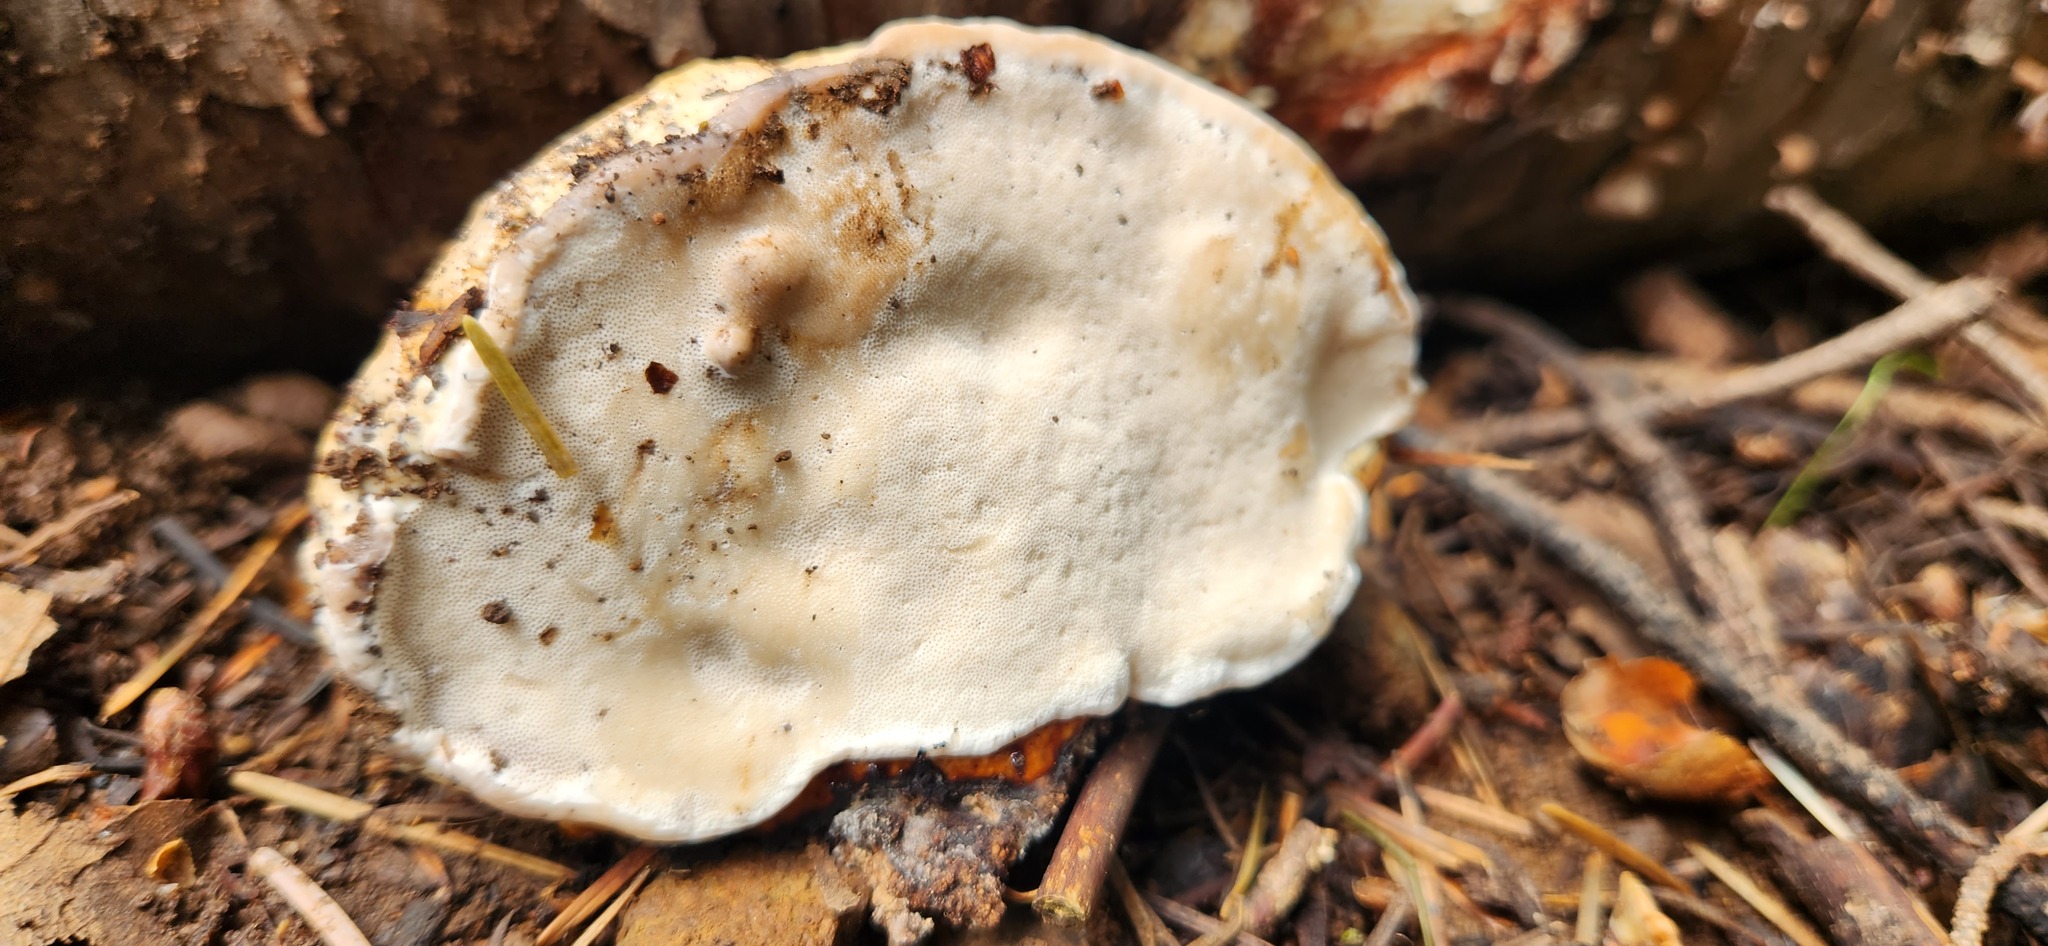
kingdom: Fungi
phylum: Basidiomycota
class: Agaricomycetes
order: Polyporales
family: Fomitopsidaceae
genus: Fomitopsis
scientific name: Fomitopsis schrenkii
